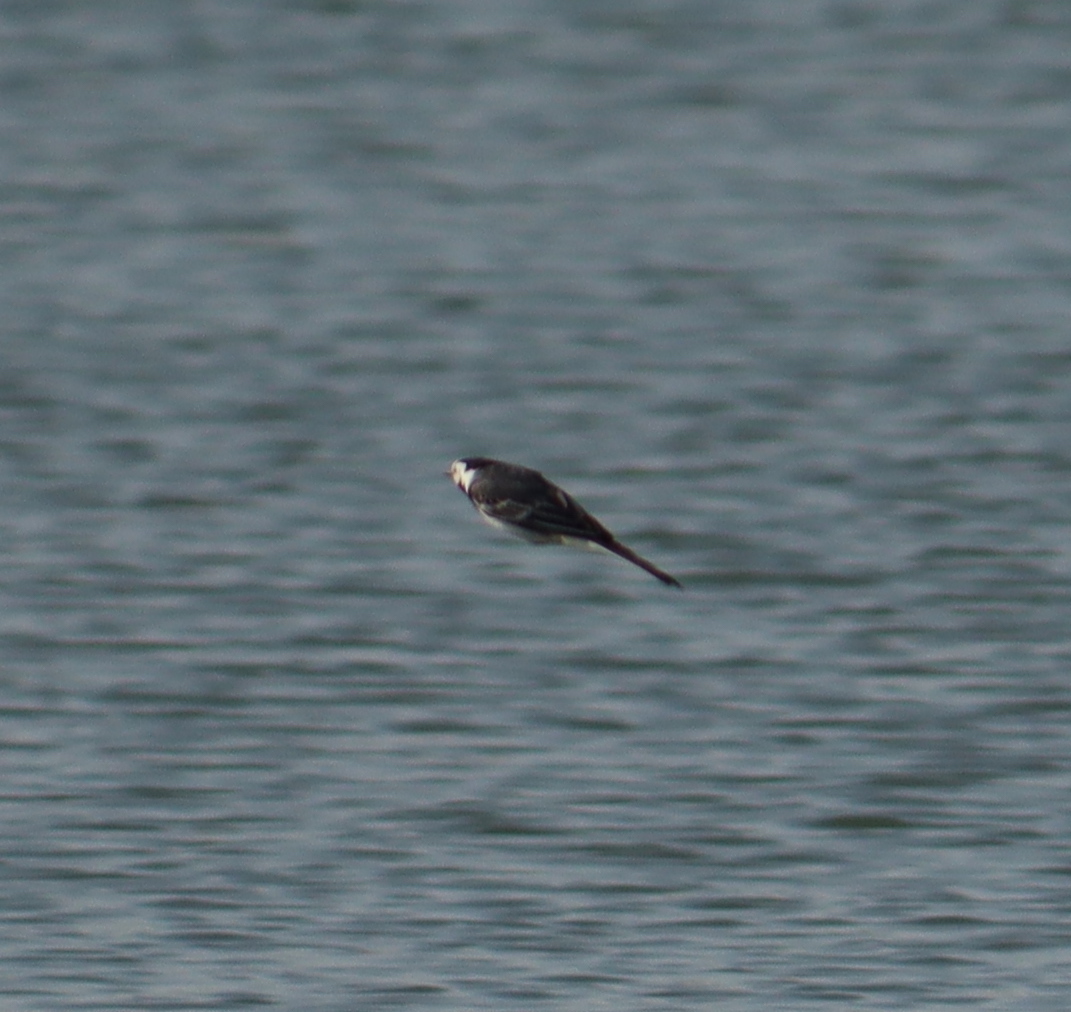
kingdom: Animalia
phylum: Chordata
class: Aves
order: Passeriformes
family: Motacillidae
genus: Motacilla
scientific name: Motacilla alba
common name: White wagtail
